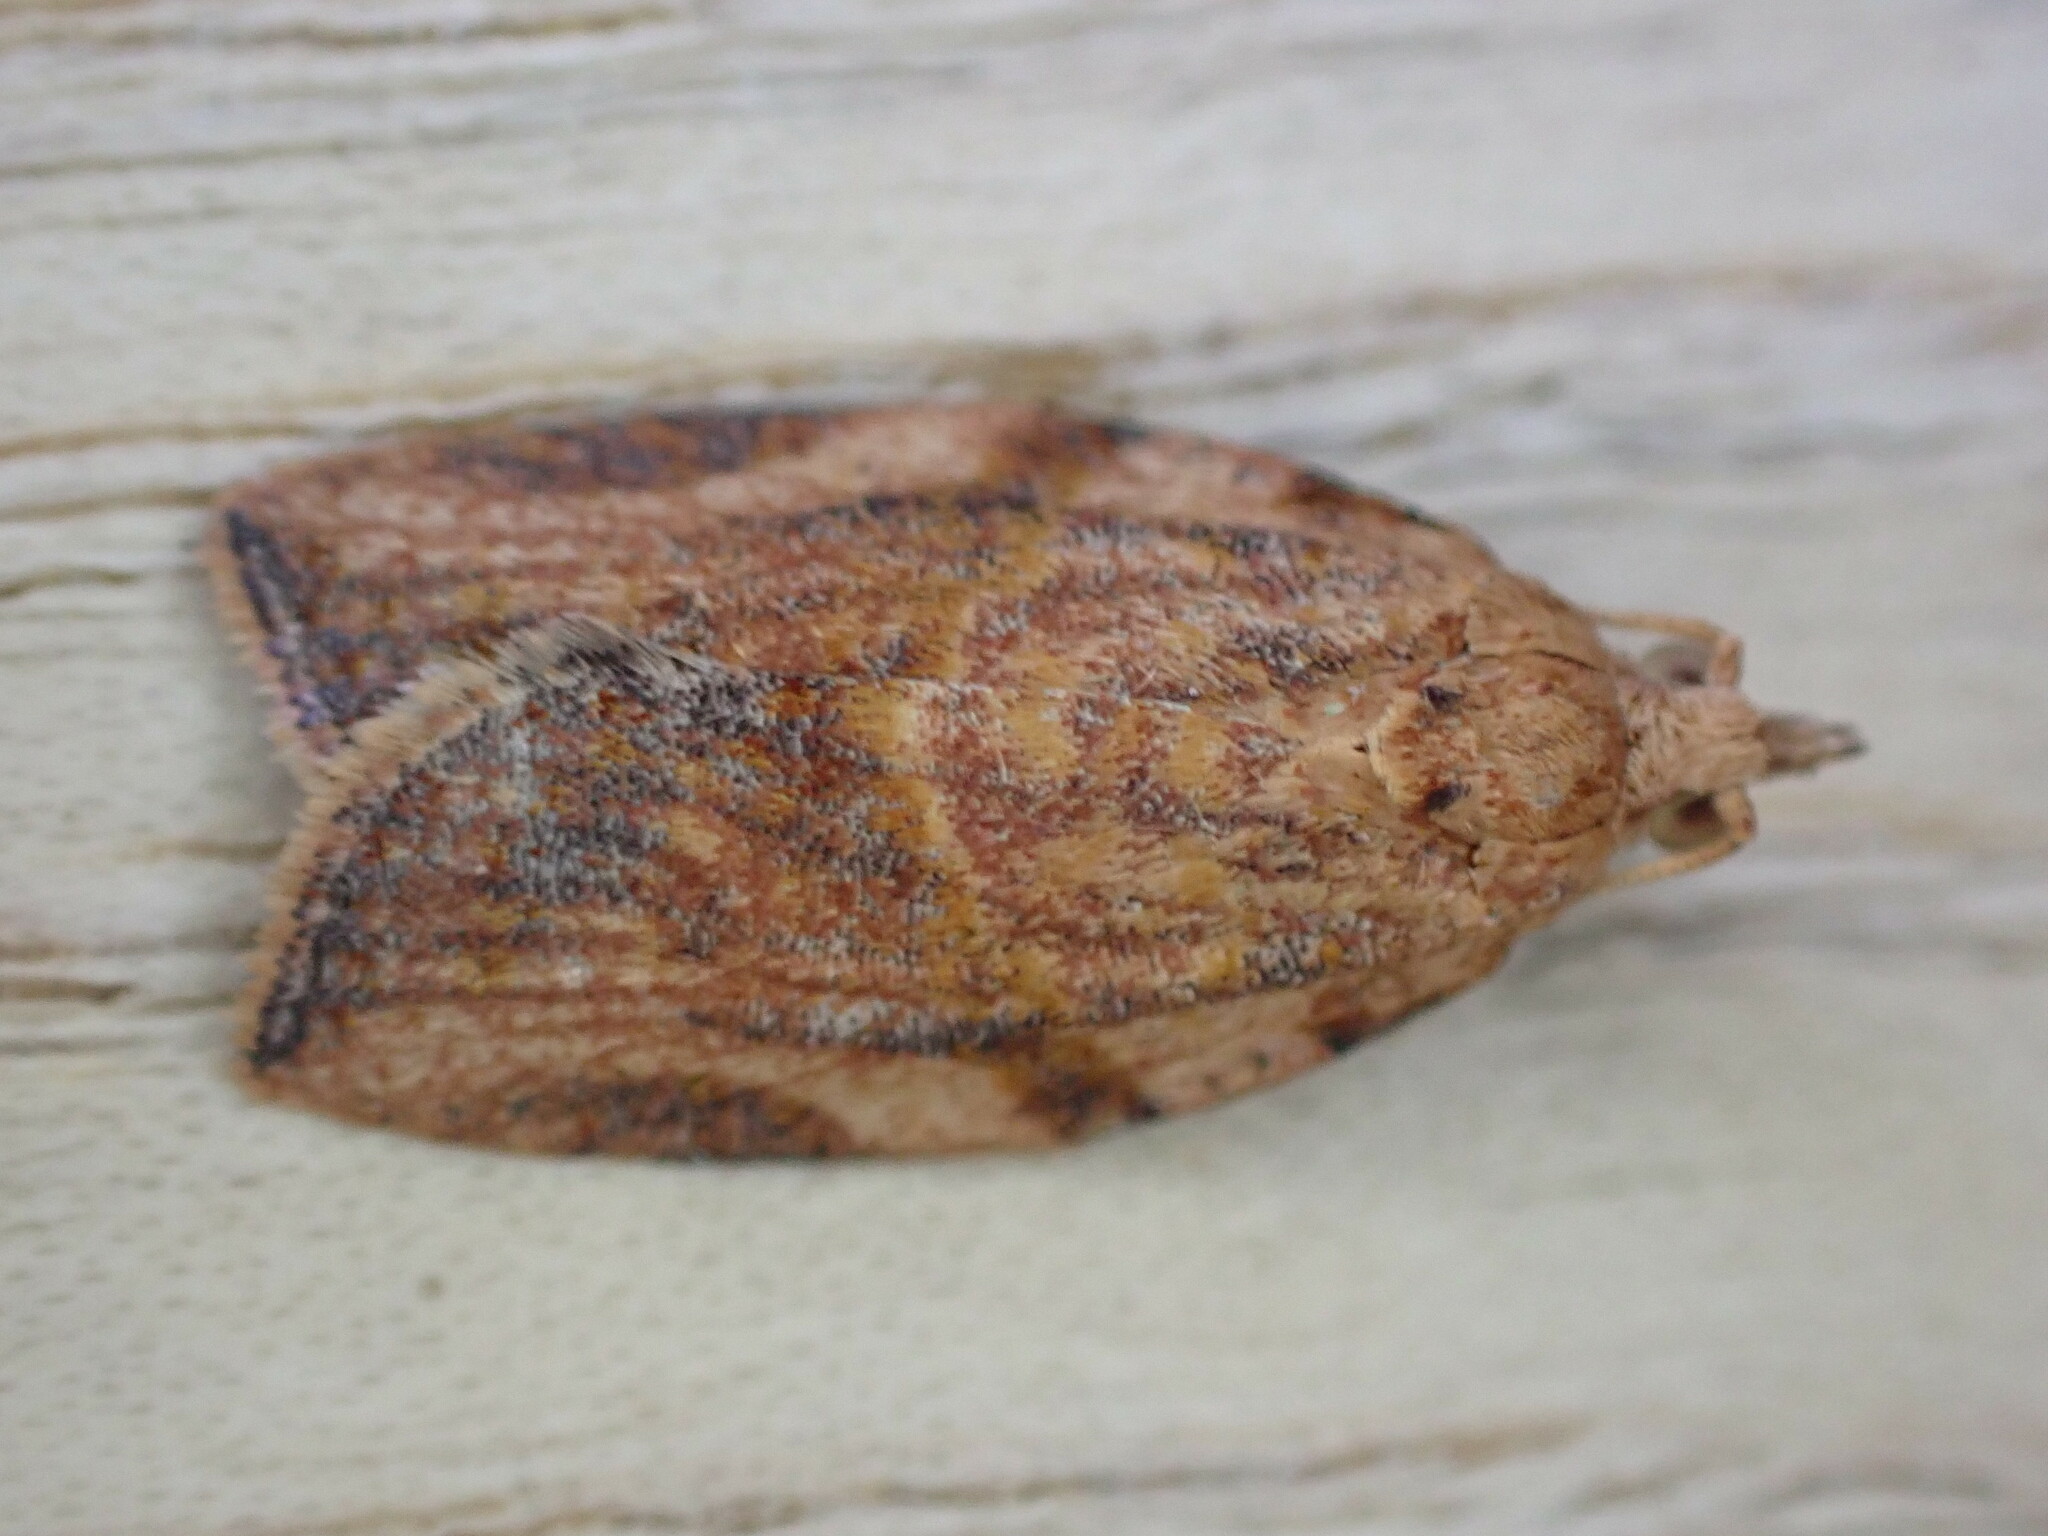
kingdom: Animalia
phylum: Arthropoda
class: Insecta
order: Lepidoptera
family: Tortricidae
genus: Epiphyas
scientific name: Epiphyas postvittana
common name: Light brown apple moth
